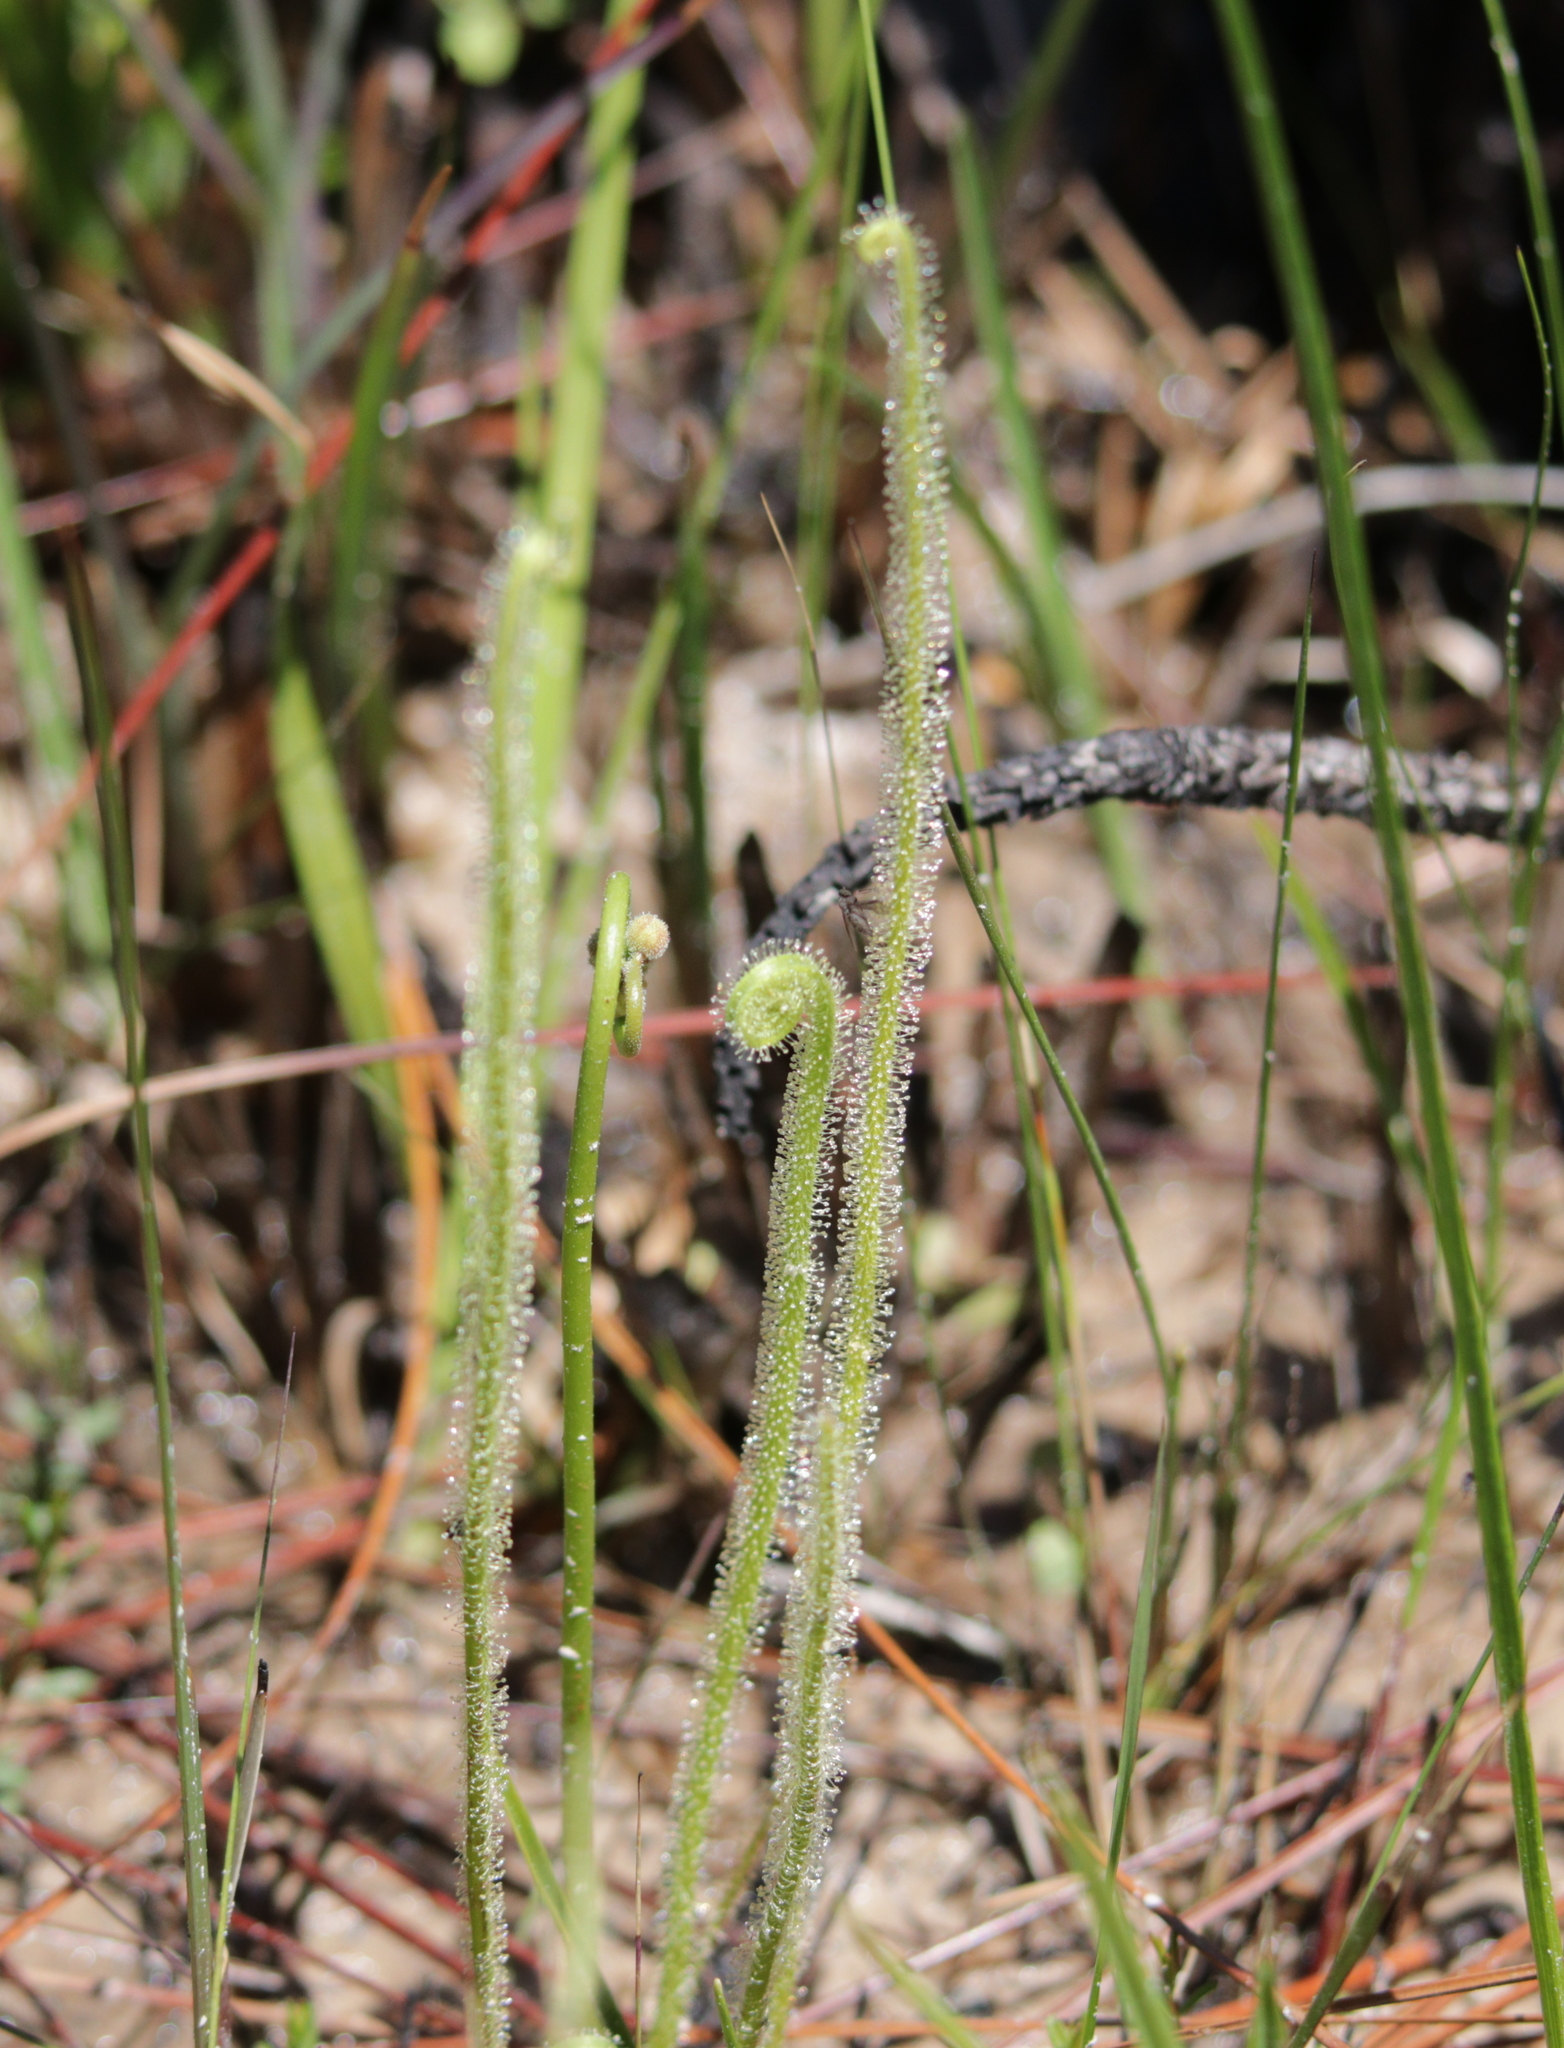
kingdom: Plantae
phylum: Tracheophyta
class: Magnoliopsida
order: Caryophyllales
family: Droseraceae
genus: Drosera
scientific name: Drosera filiformis
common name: Dew-thread
